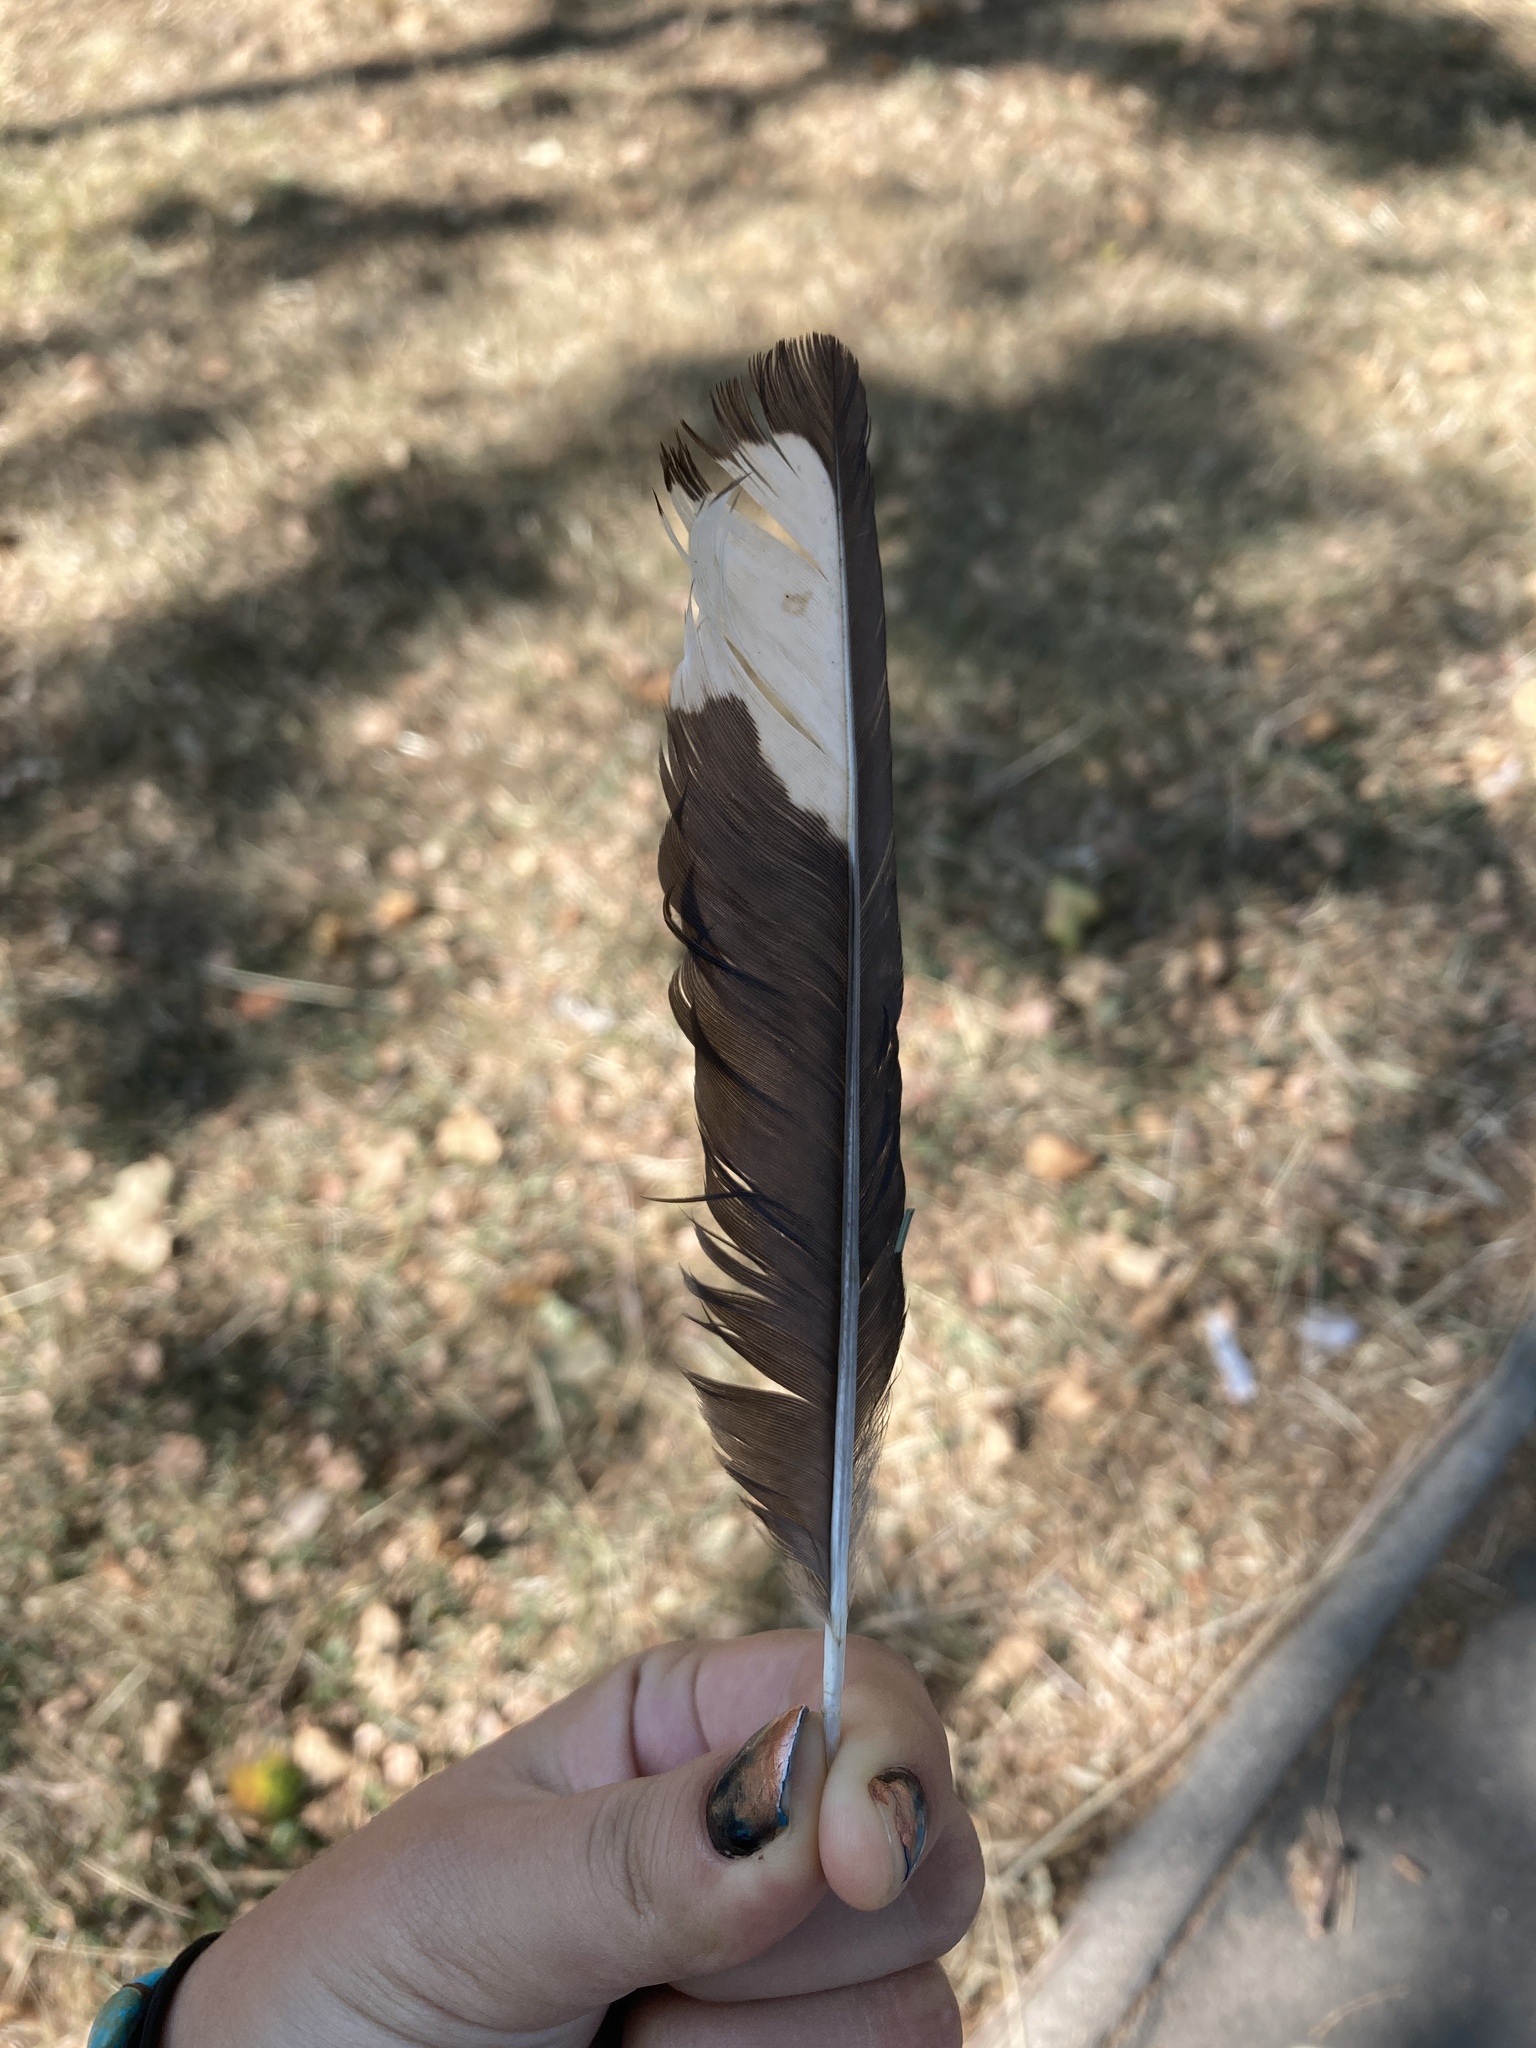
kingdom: Animalia
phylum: Chordata
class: Aves
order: Passeriformes
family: Corvidae
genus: Pica
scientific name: Pica pica
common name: Eurasian magpie
